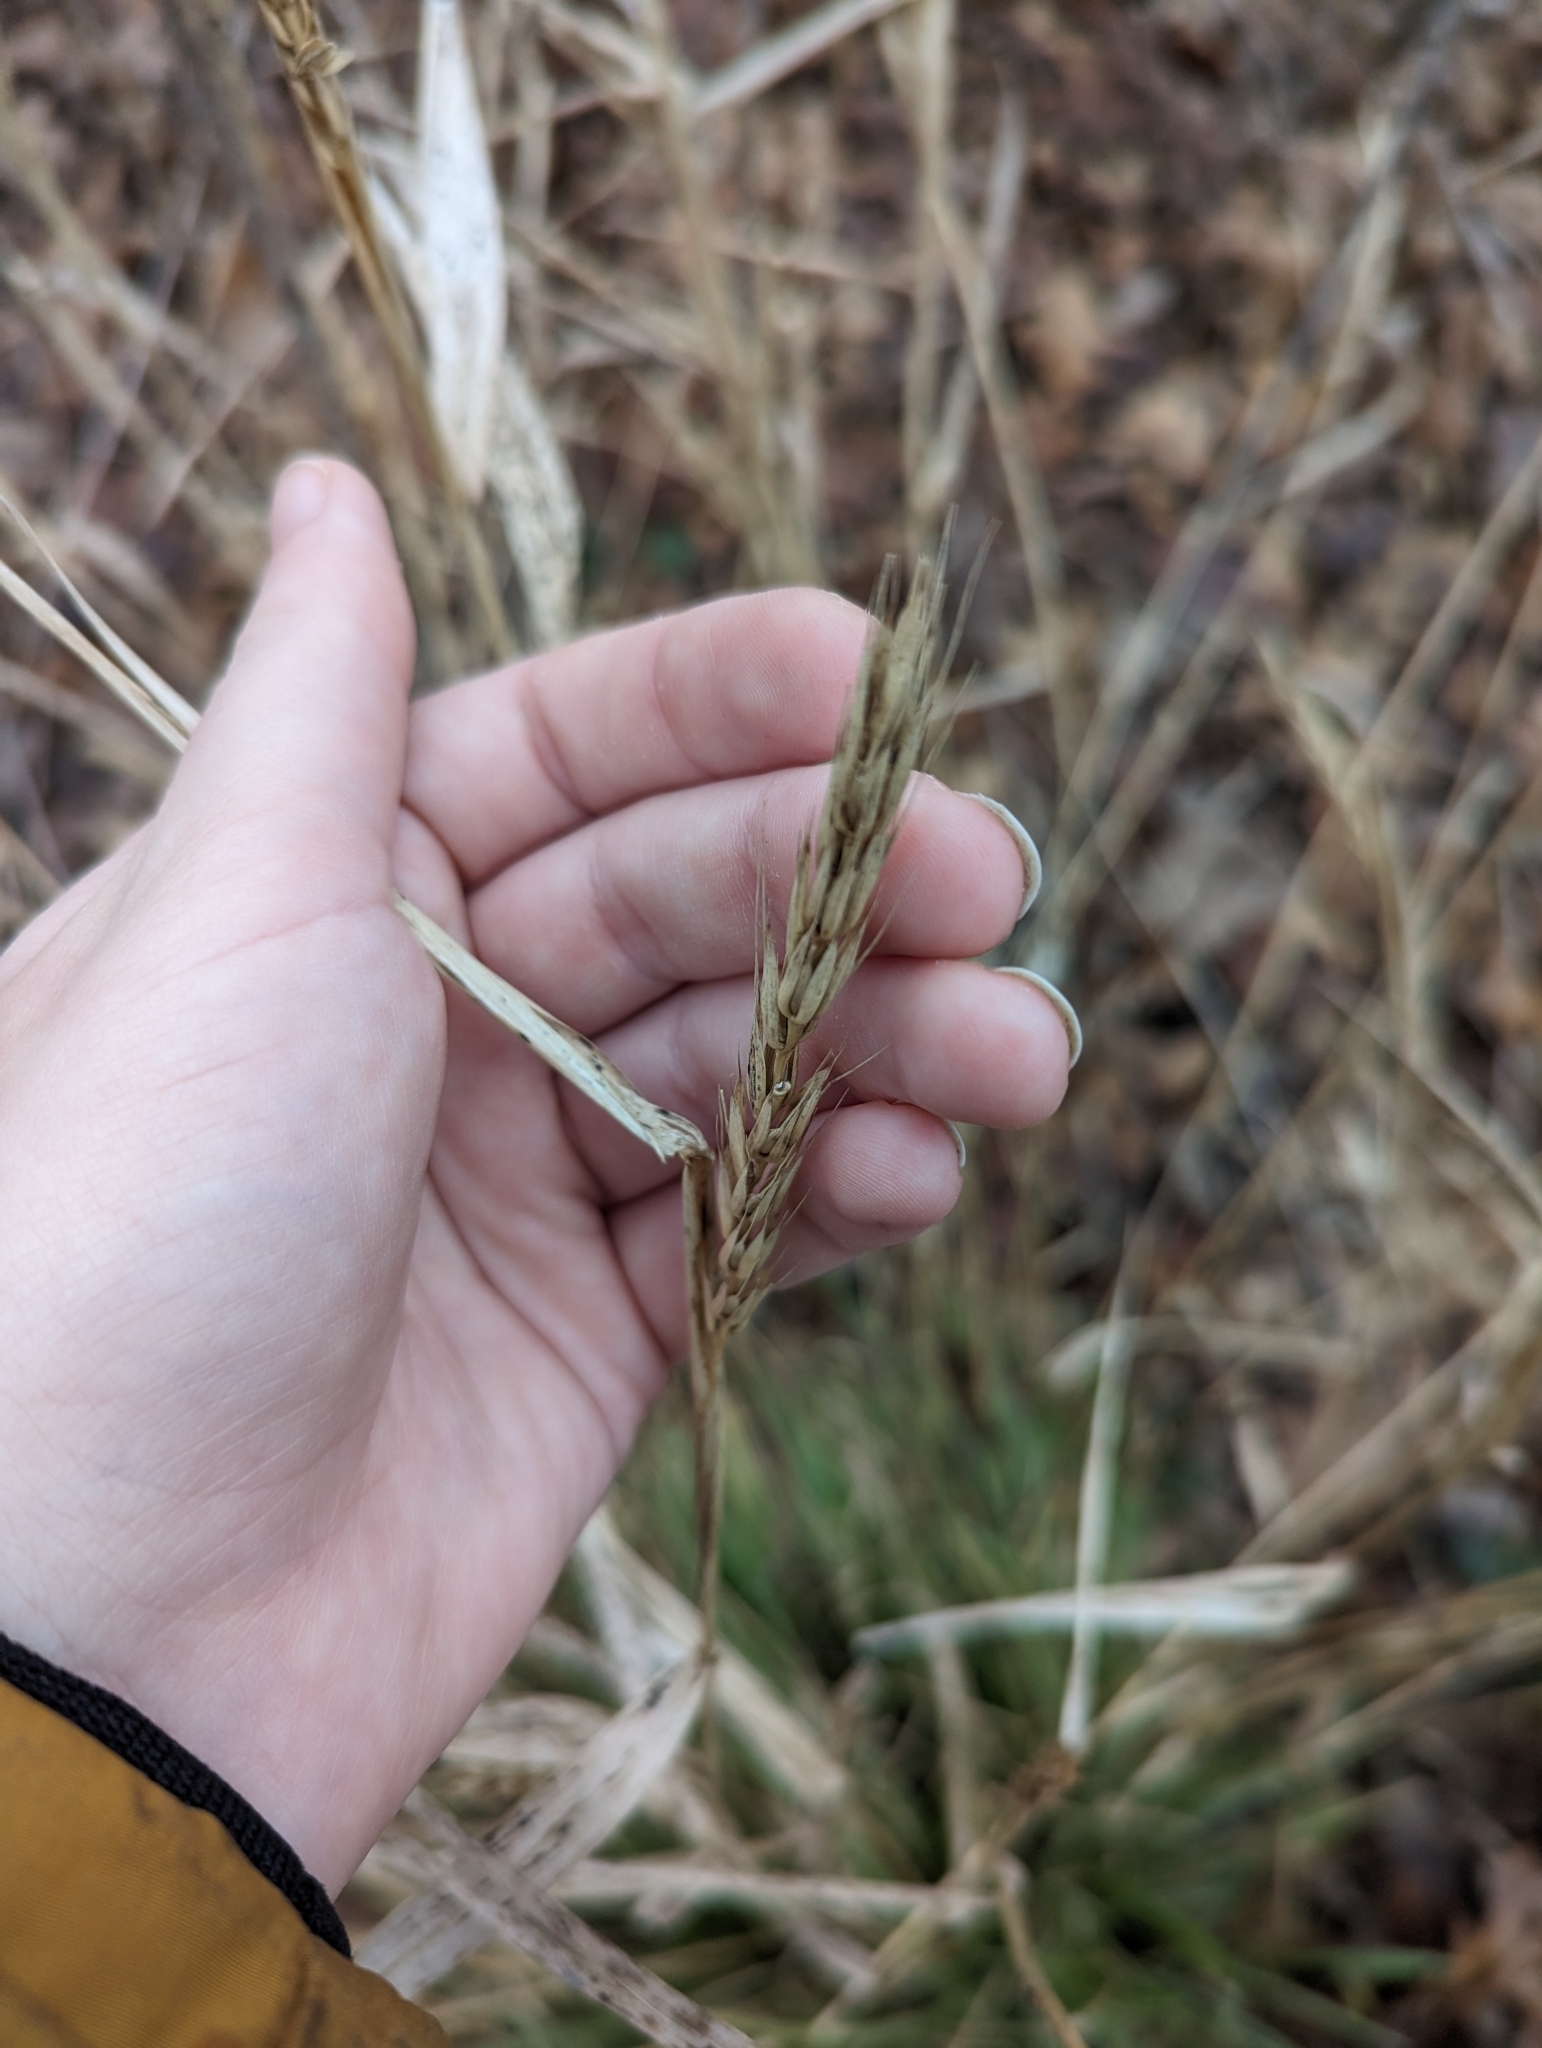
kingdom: Plantae
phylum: Tracheophyta
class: Liliopsida
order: Poales
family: Poaceae
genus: Elymus
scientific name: Elymus virginicus
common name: Common eastern wildrye
